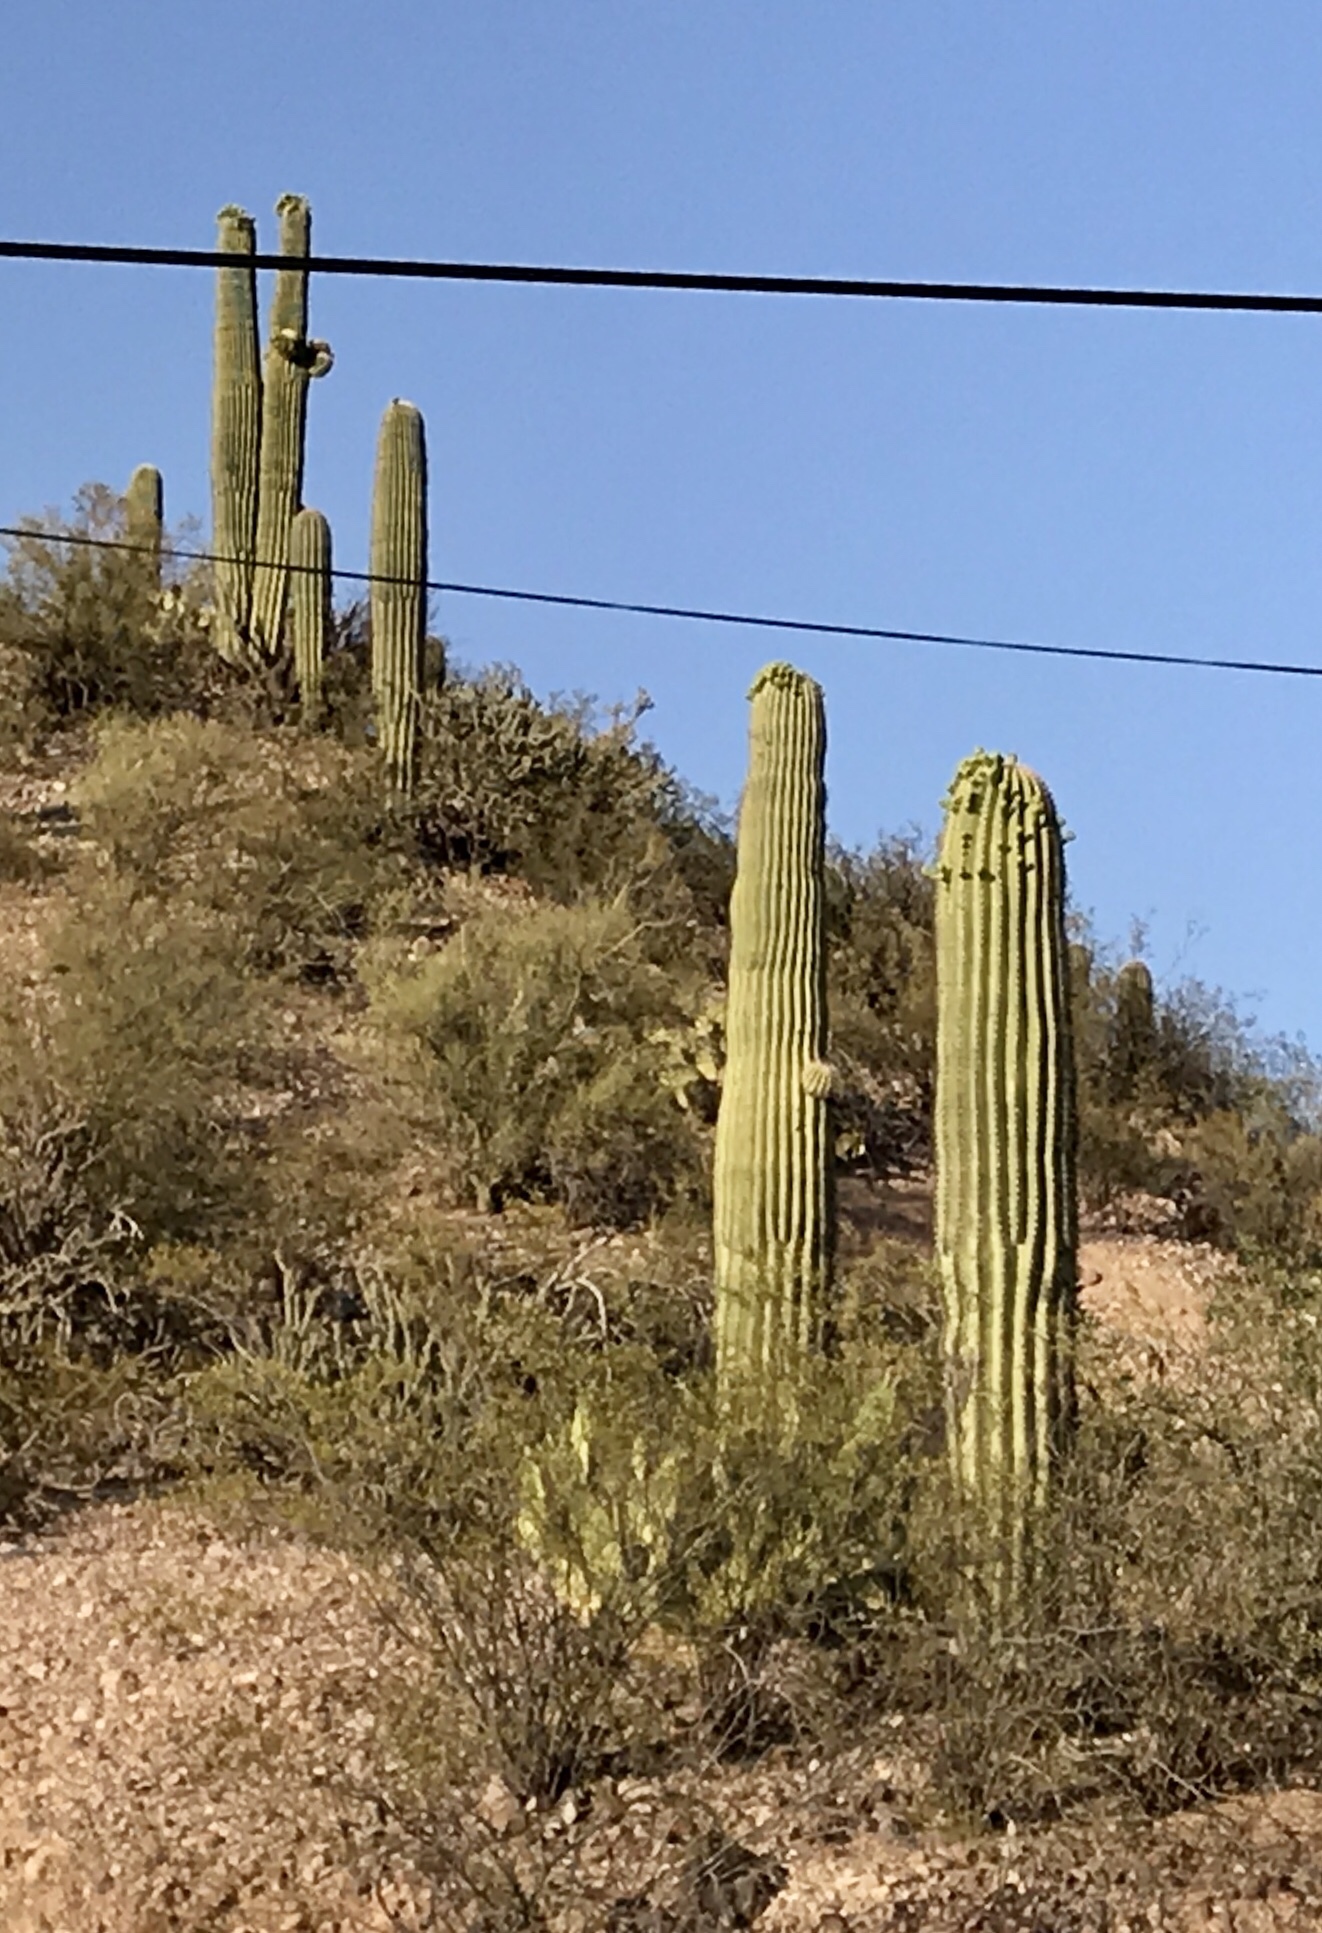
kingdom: Plantae
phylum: Tracheophyta
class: Magnoliopsida
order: Caryophyllales
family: Cactaceae
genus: Carnegiea
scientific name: Carnegiea gigantea
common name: Saguaro
